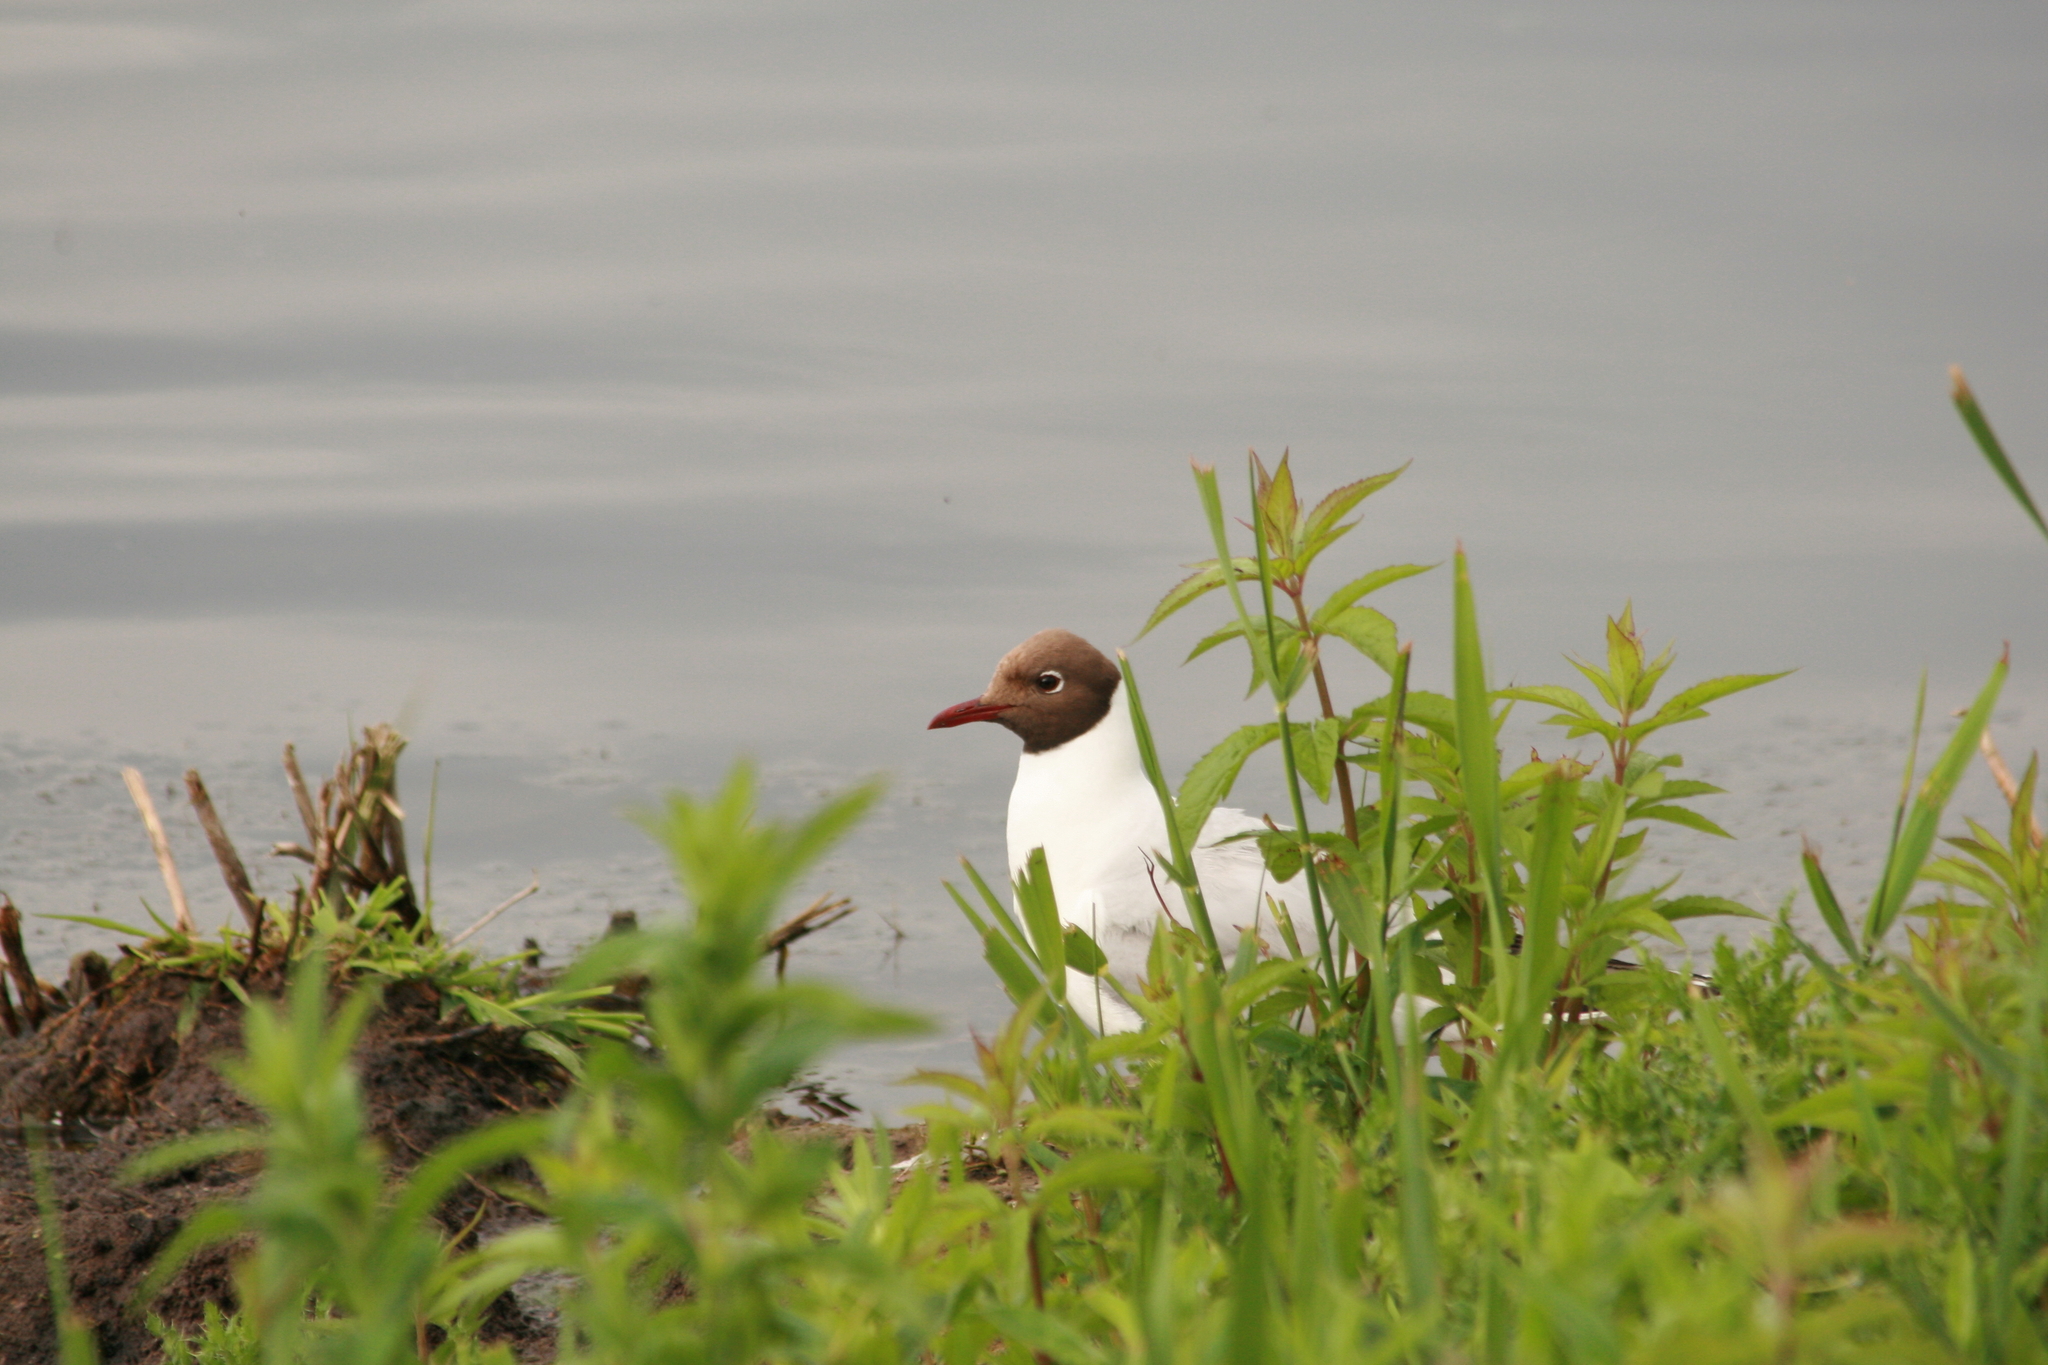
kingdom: Animalia
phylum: Chordata
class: Aves
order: Charadriiformes
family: Laridae
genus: Chroicocephalus
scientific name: Chroicocephalus ridibundus
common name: Black-headed gull
